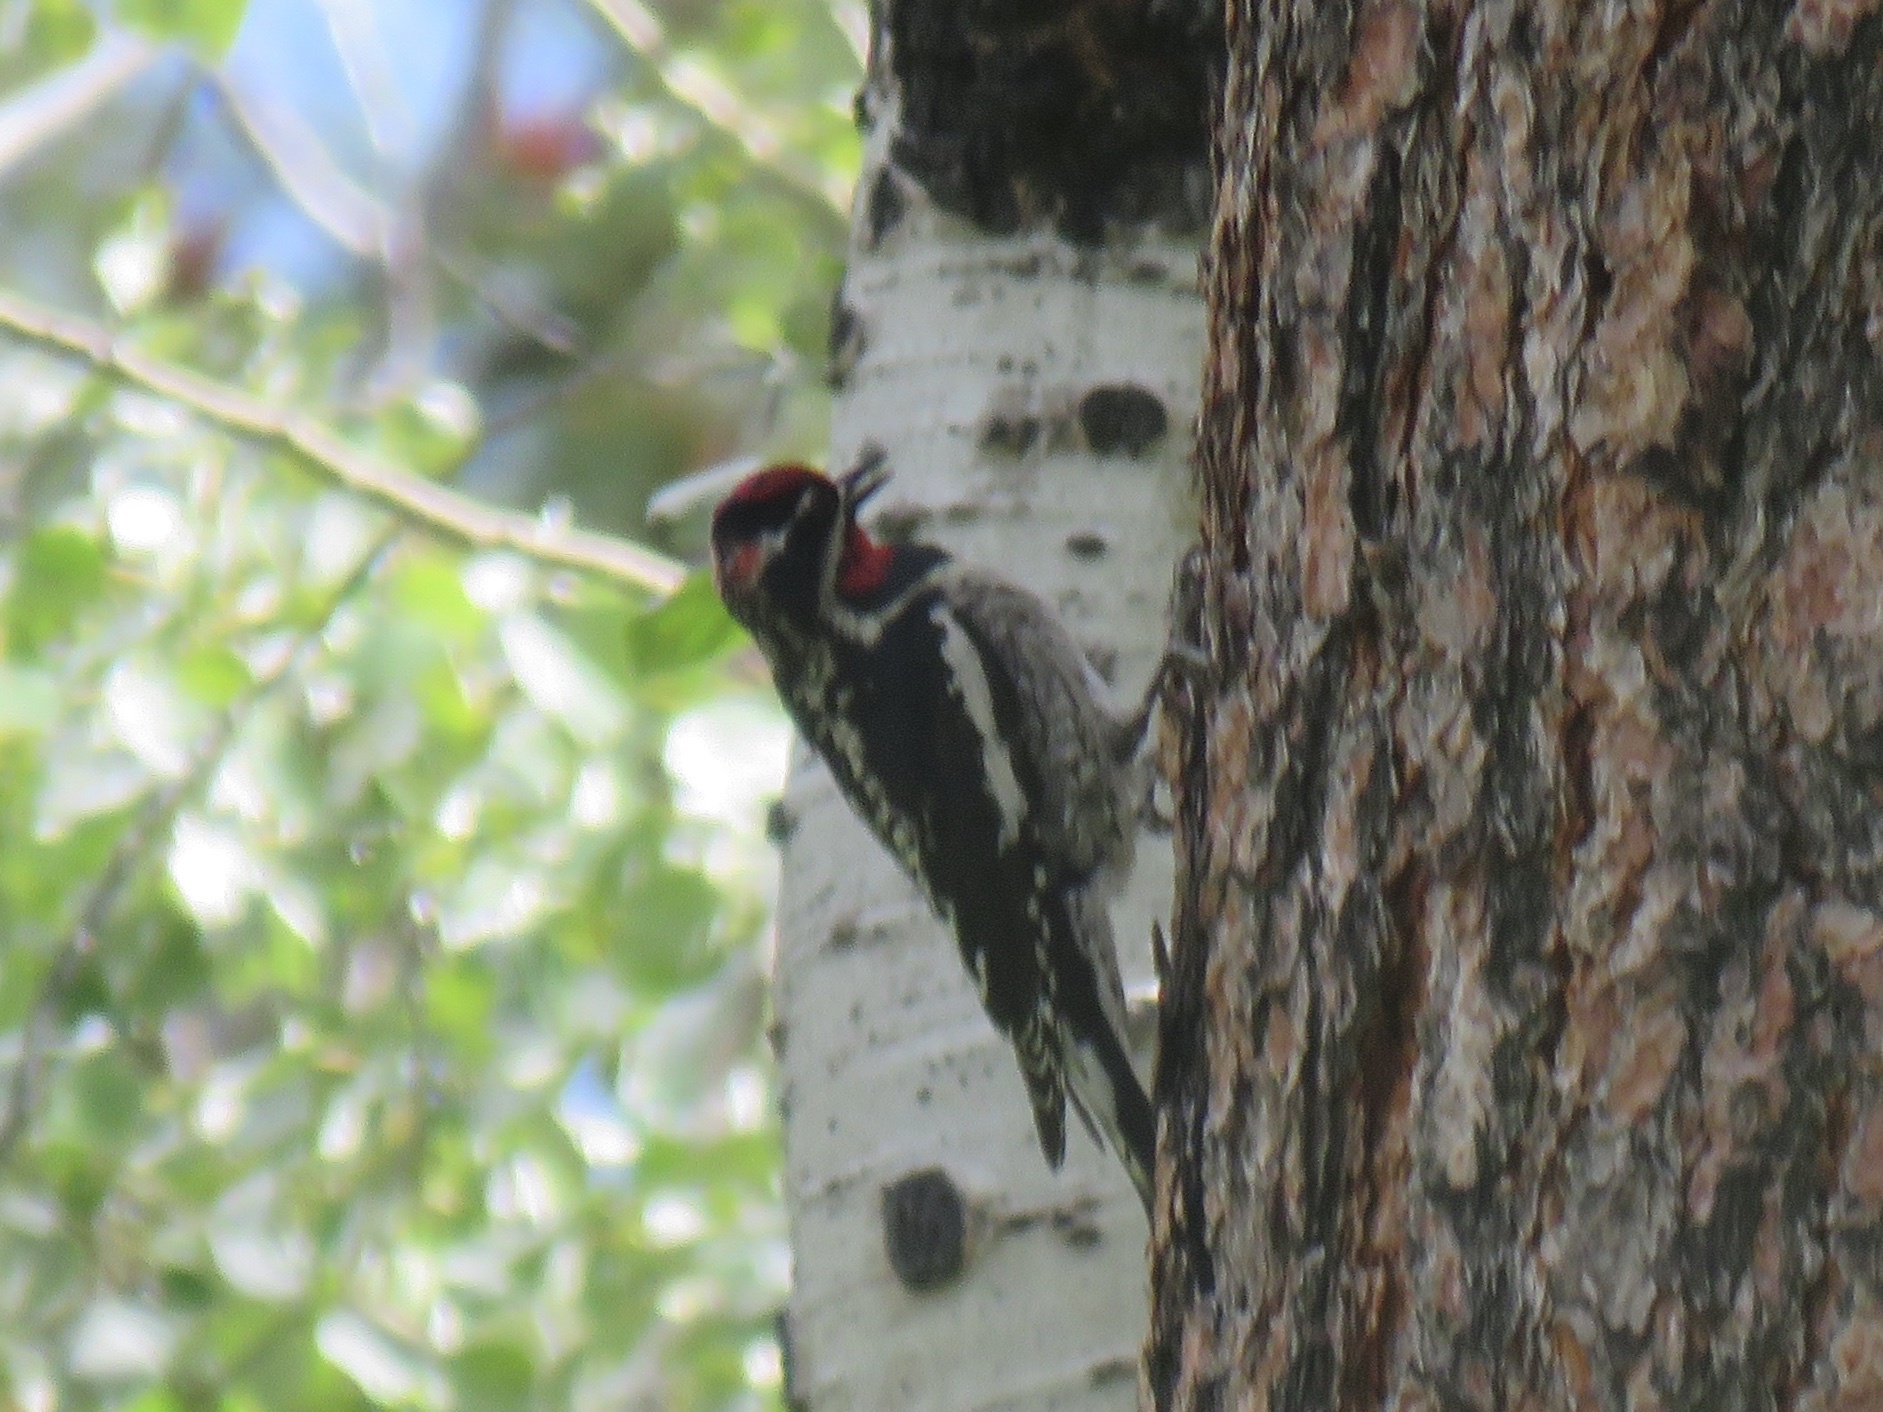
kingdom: Animalia
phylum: Chordata
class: Aves
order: Piciformes
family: Picidae
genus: Sphyrapicus
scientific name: Sphyrapicus nuchalis
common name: Red-naped sapsucker
